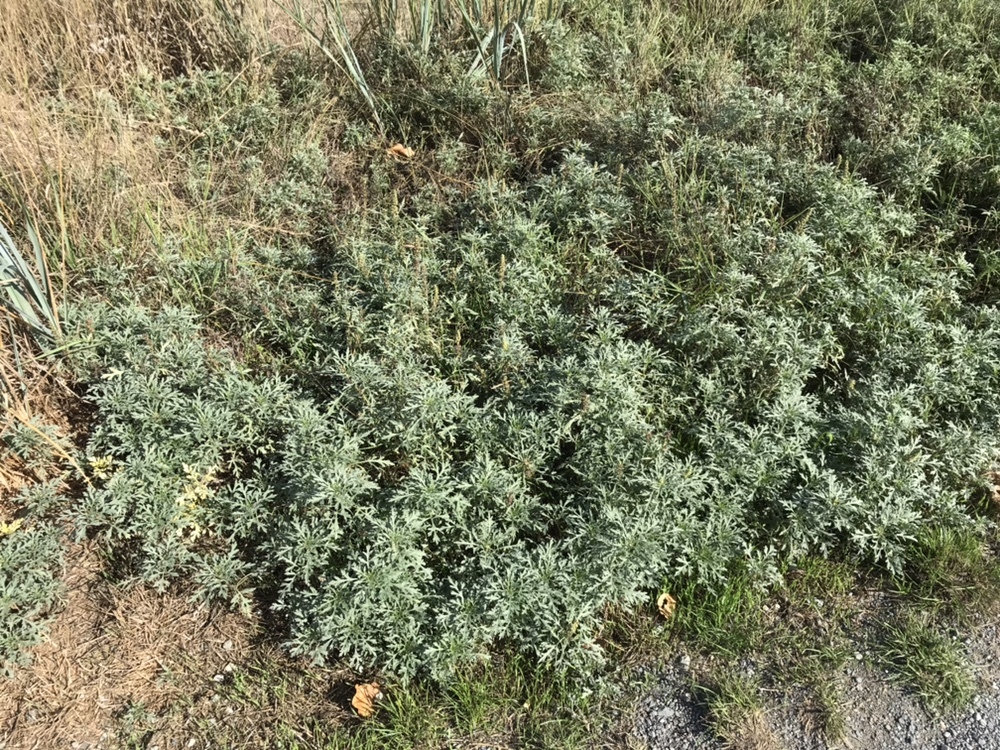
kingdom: Plantae
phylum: Tracheophyta
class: Magnoliopsida
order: Asterales
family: Asteraceae
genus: Ambrosia
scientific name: Ambrosia chamissonis
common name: Beachbur
